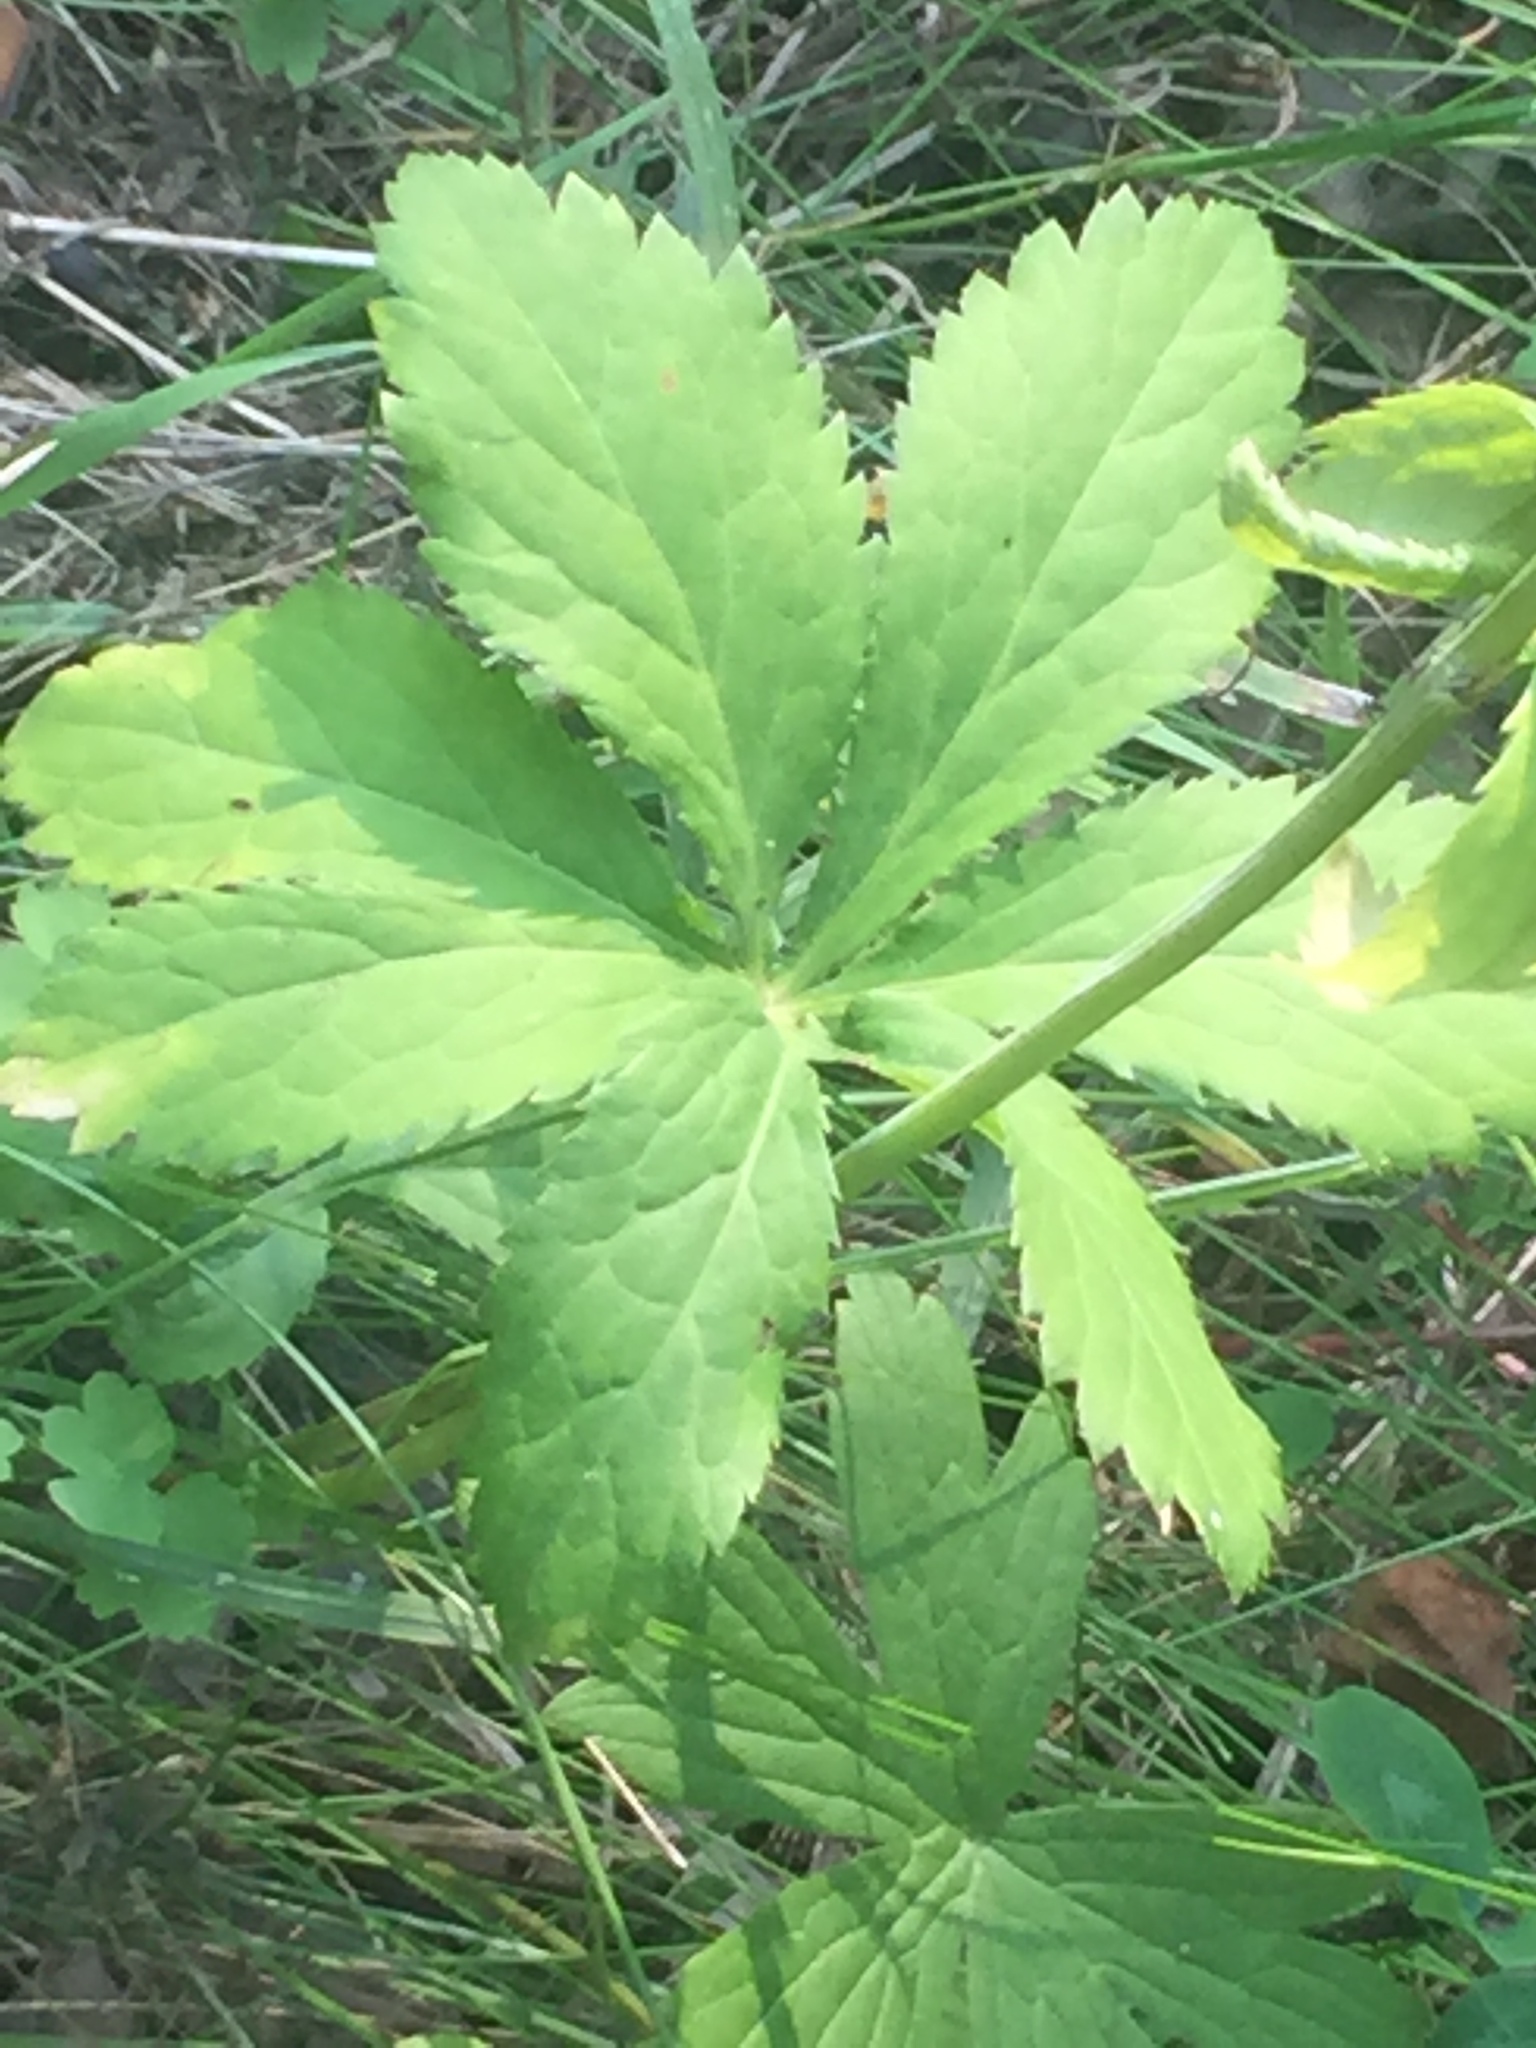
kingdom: Plantae
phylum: Tracheophyta
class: Magnoliopsida
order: Apiales
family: Apiaceae
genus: Sanicula
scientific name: Sanicula marilandica
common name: Black snakeroot
